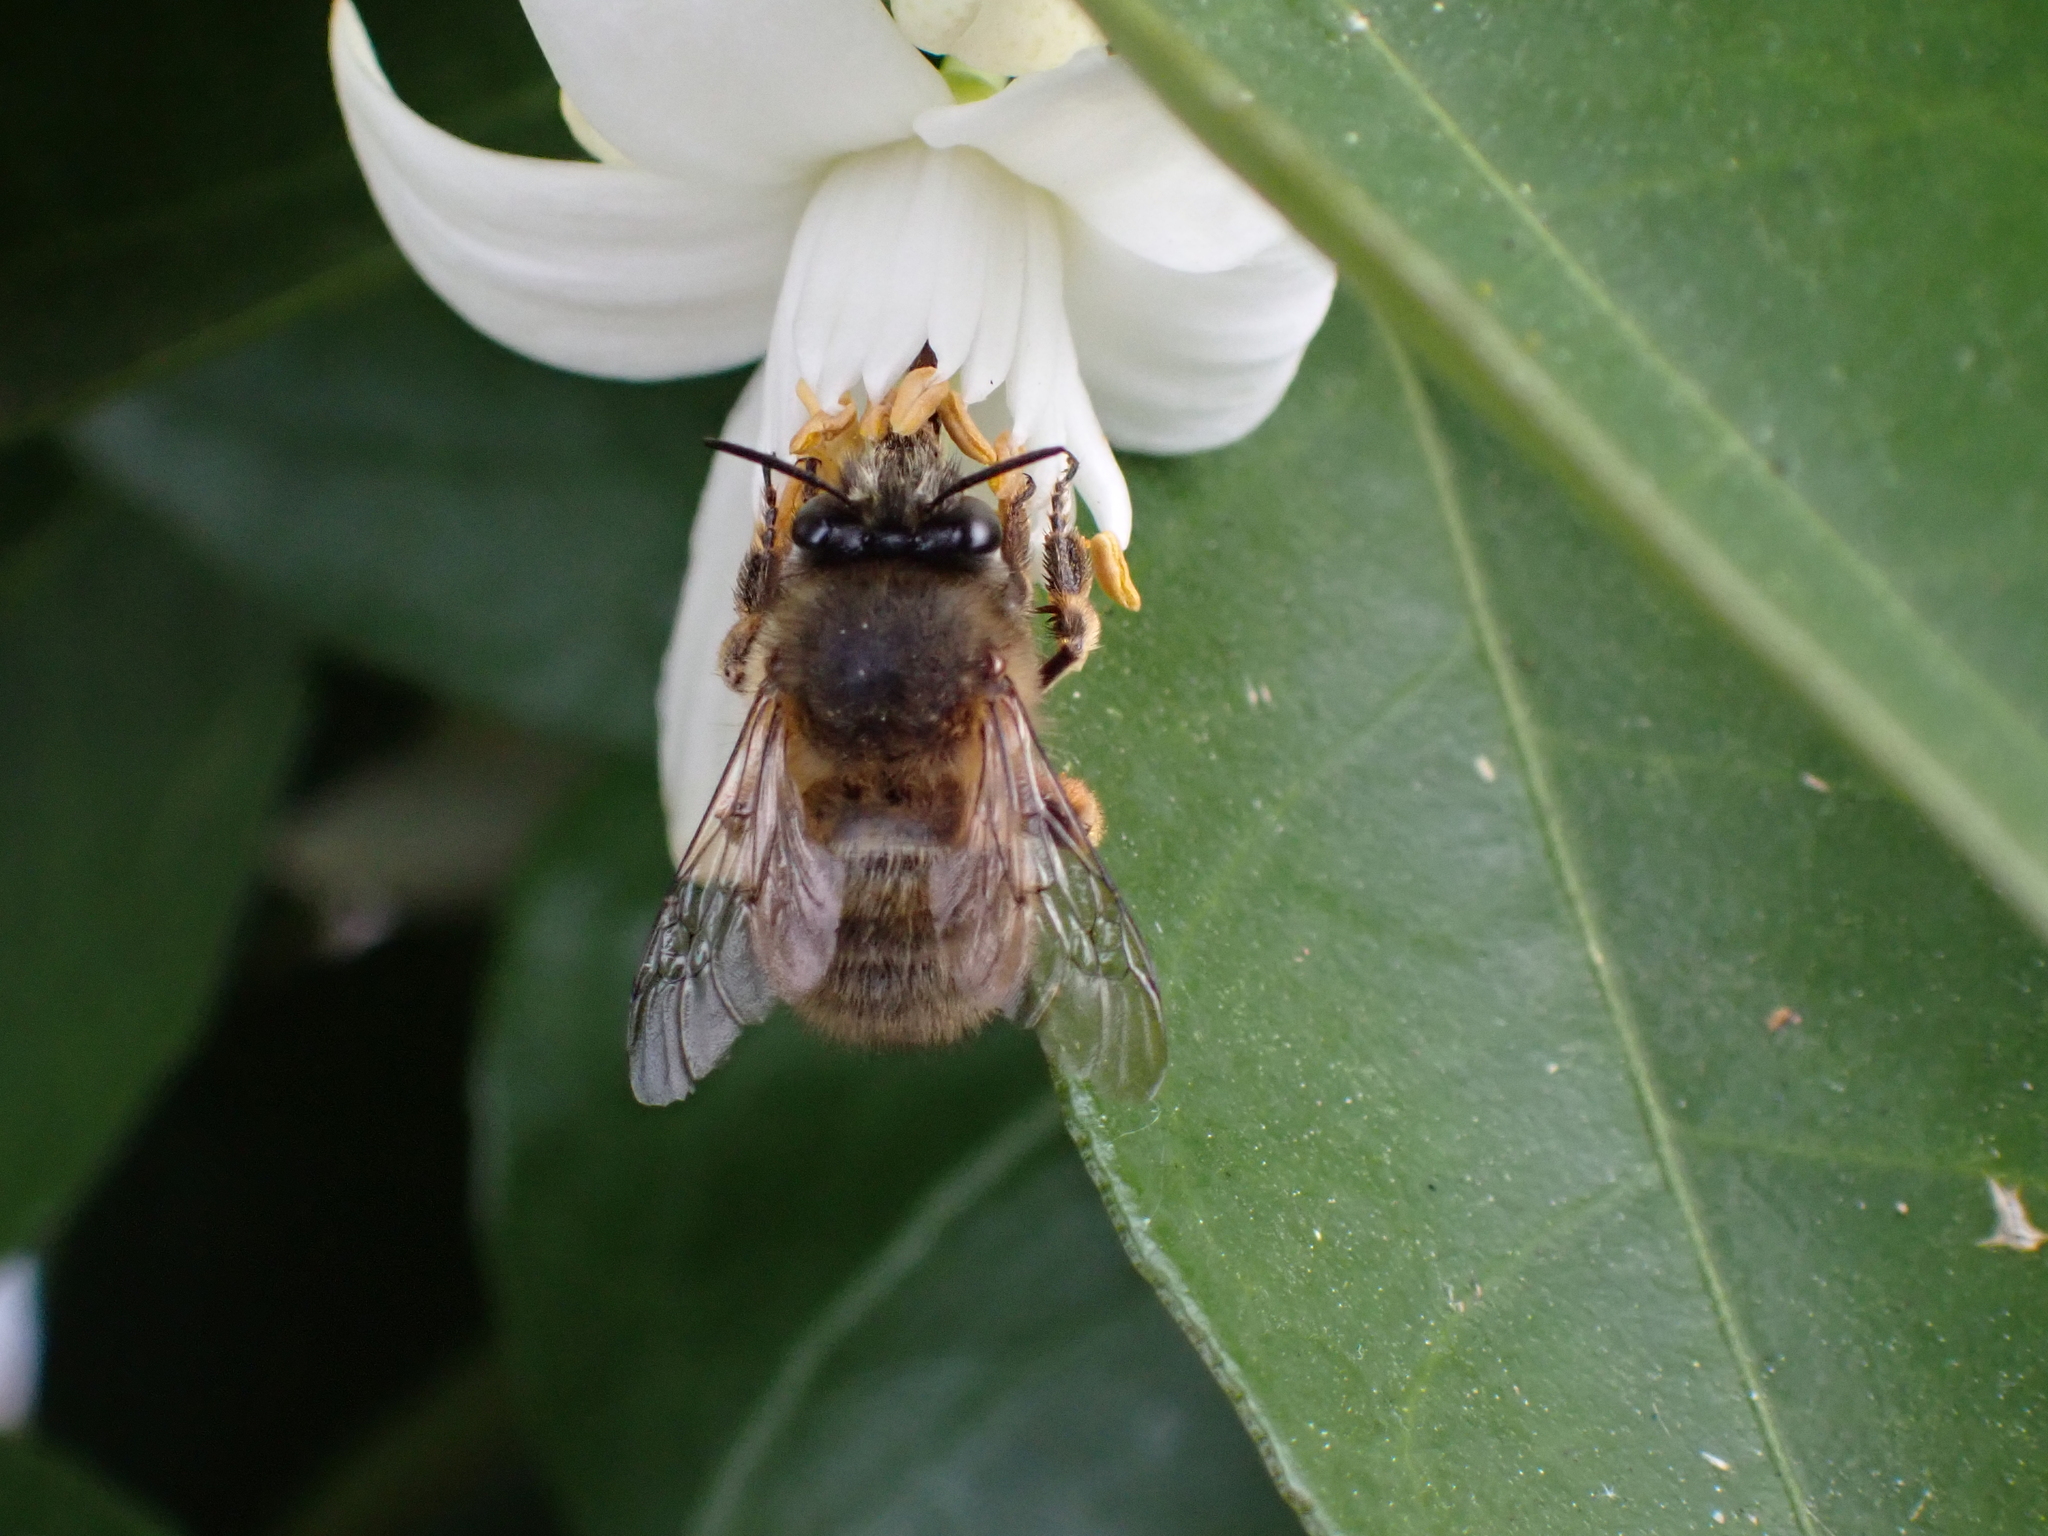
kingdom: Animalia
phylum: Arthropoda
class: Insecta
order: Hymenoptera
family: Apidae
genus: Anthophora
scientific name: Anthophora plumipes
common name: Hairy-footed flower bee
